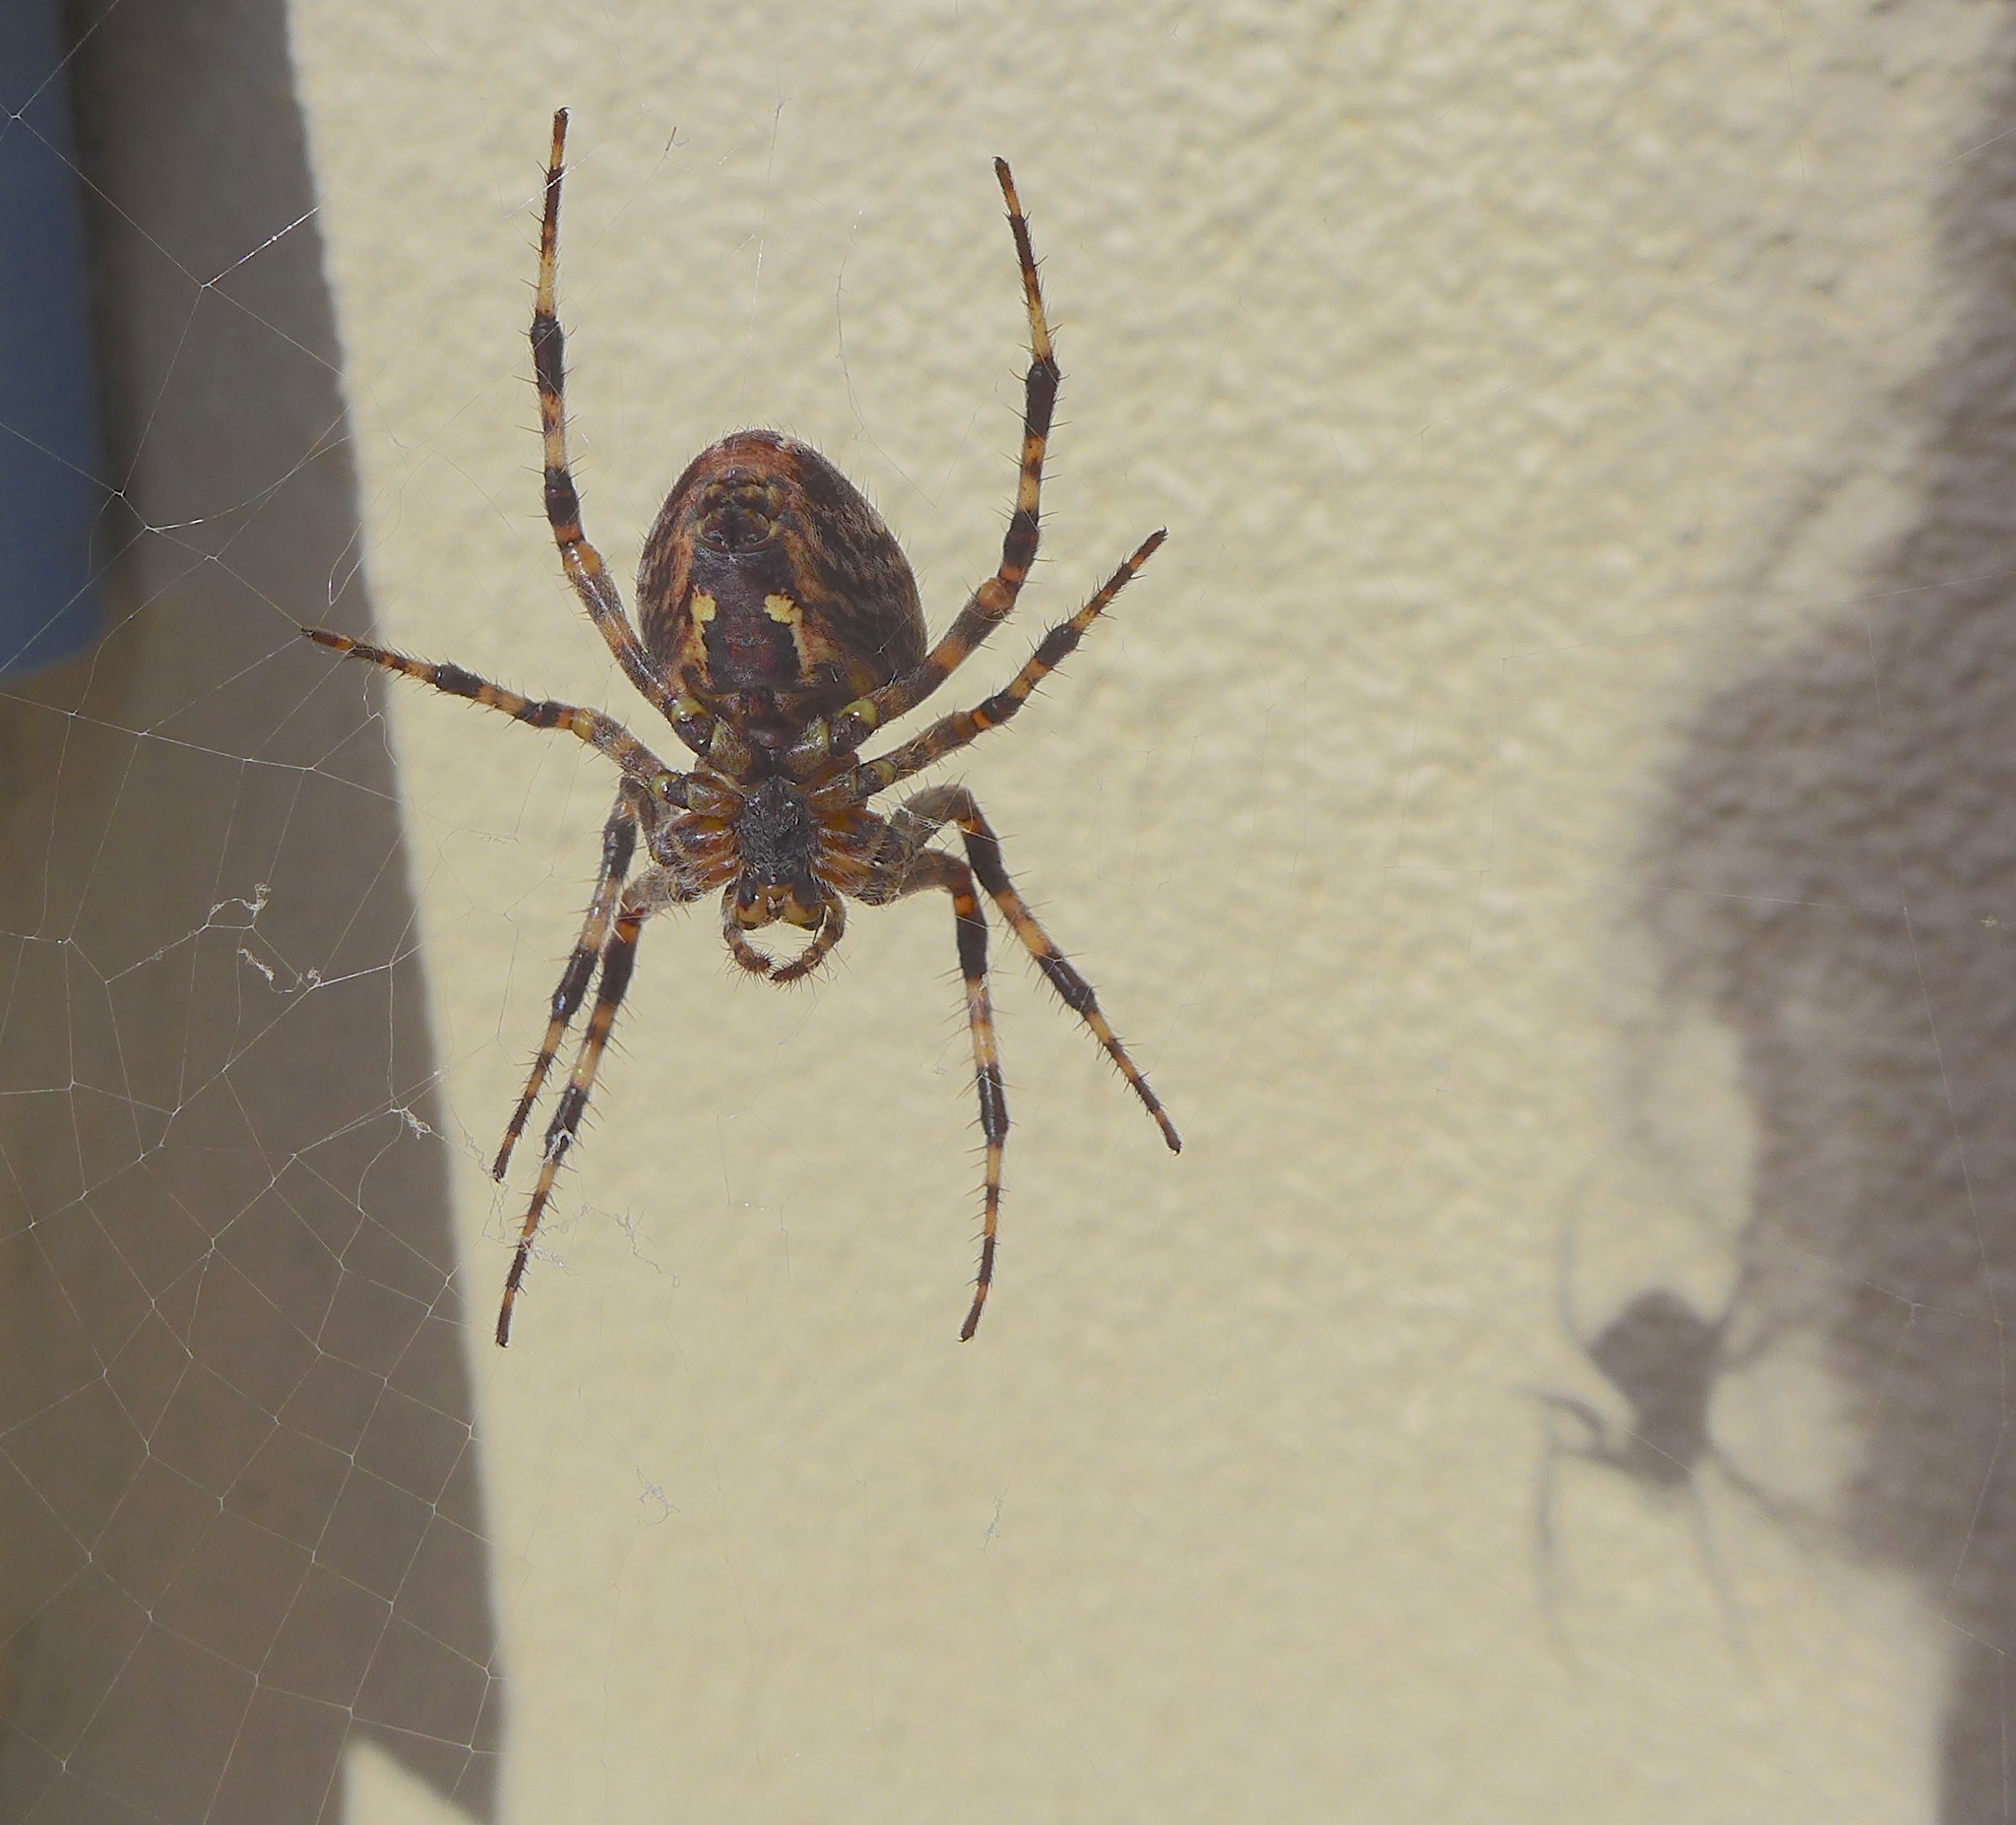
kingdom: Animalia
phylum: Arthropoda
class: Arachnida
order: Araneae
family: Araneidae
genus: Araneus
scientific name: Araneus diadematus
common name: Cross orbweaver
